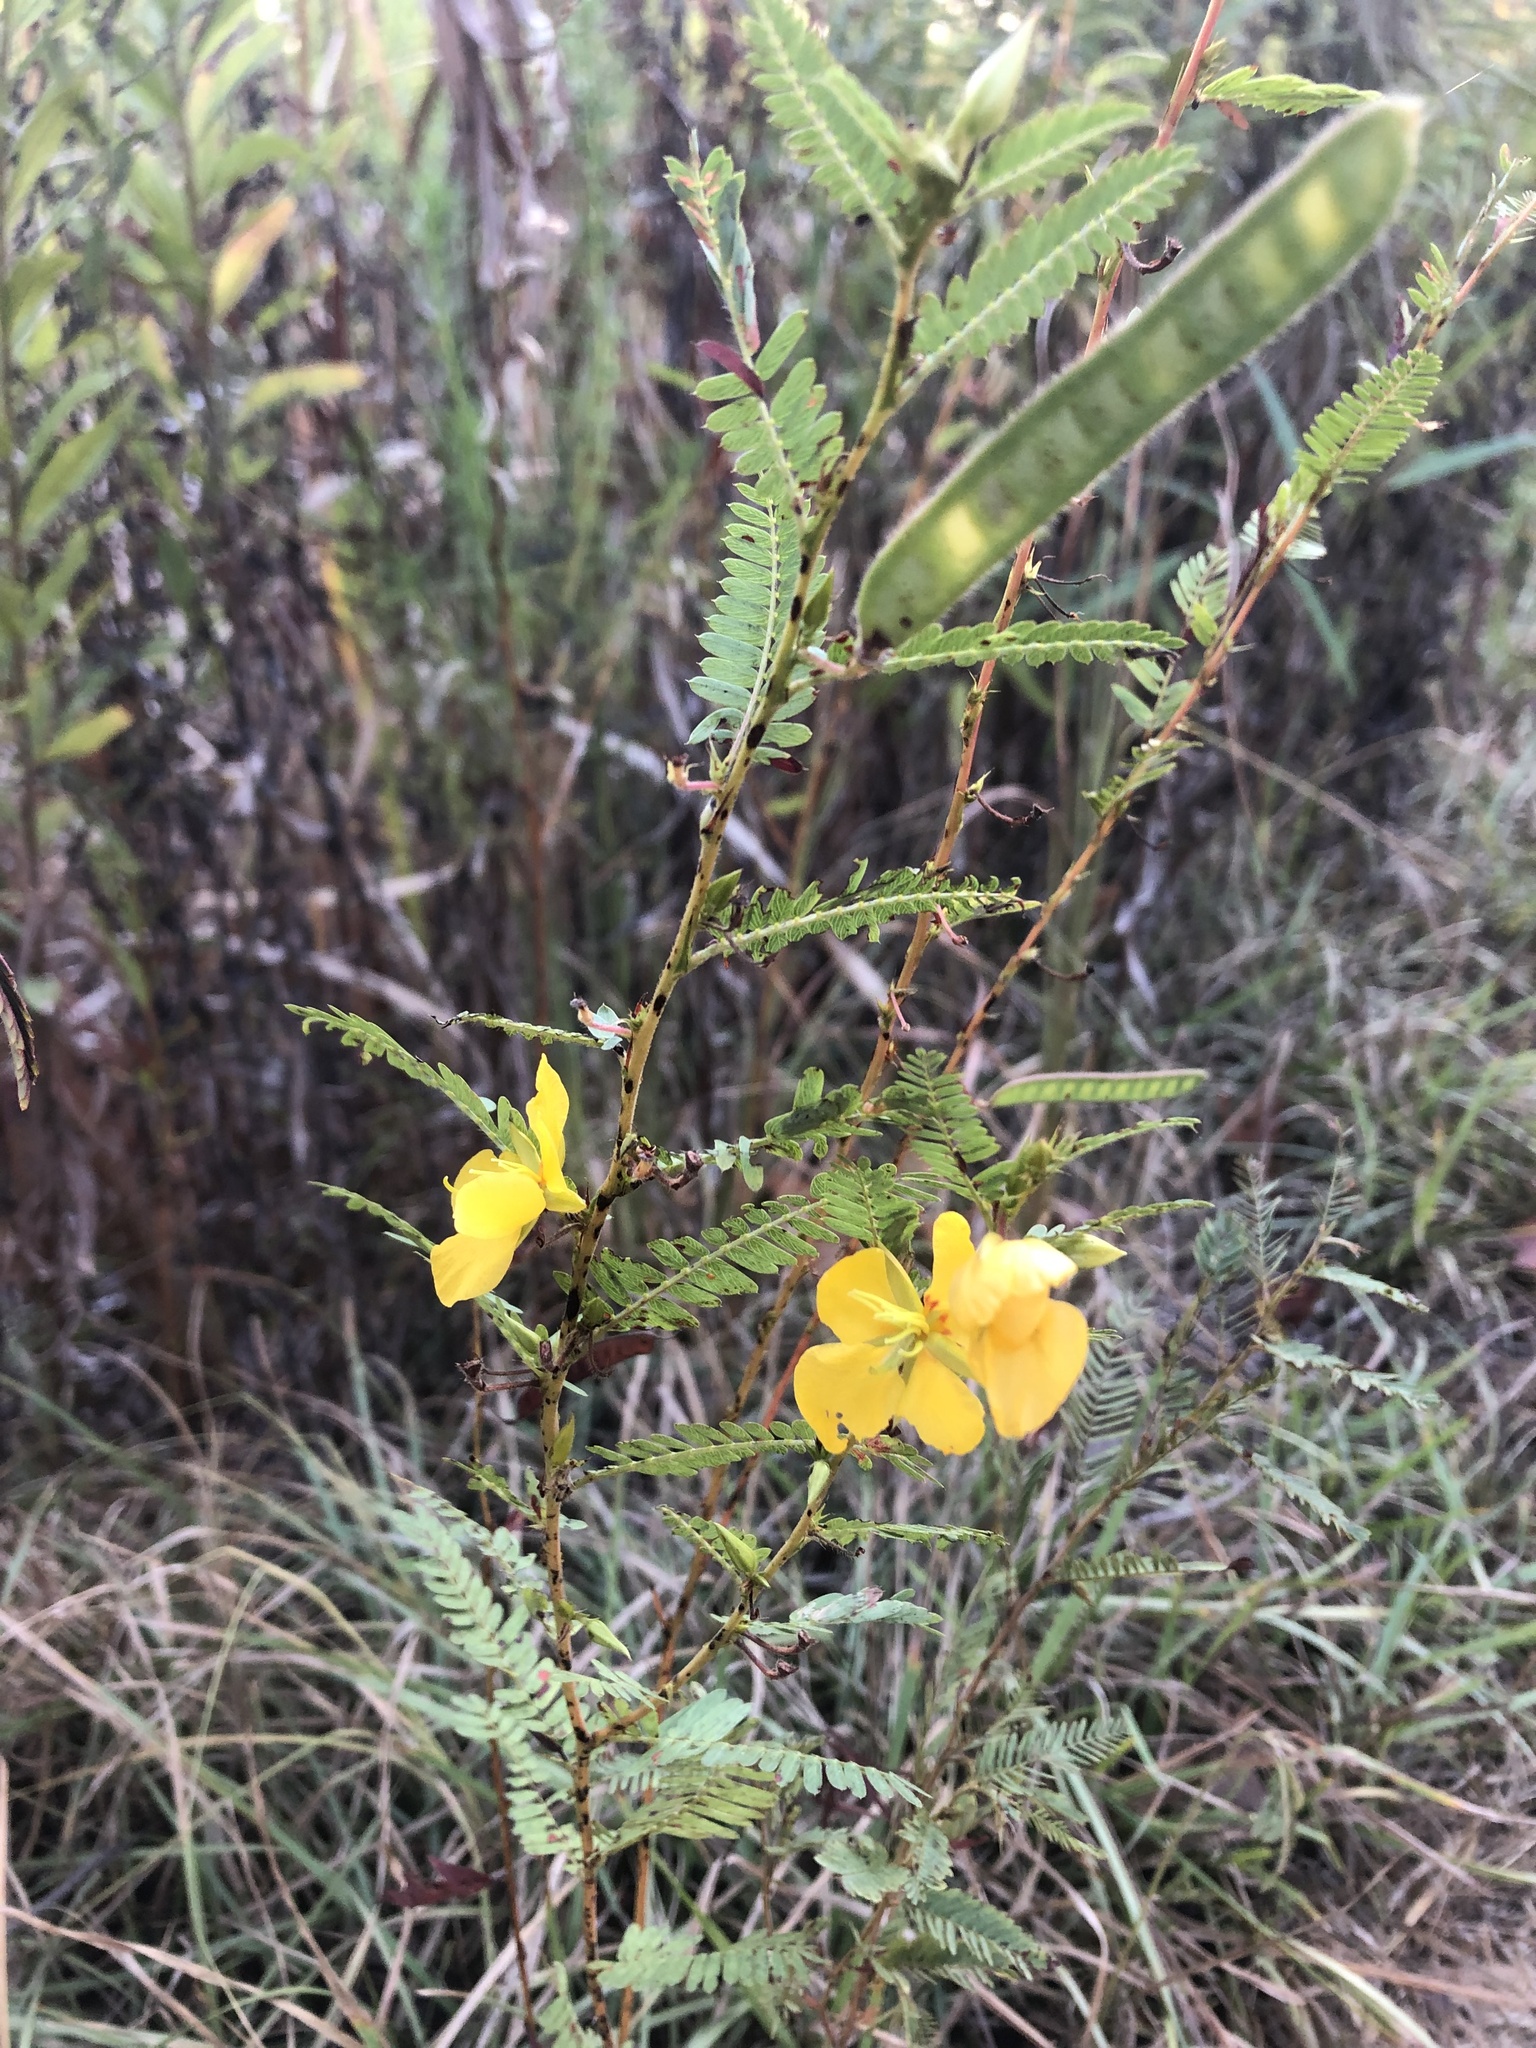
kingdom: Plantae
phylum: Tracheophyta
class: Magnoliopsida
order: Fabales
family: Fabaceae
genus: Chamaecrista
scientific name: Chamaecrista fasciculata
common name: Golden cassia
